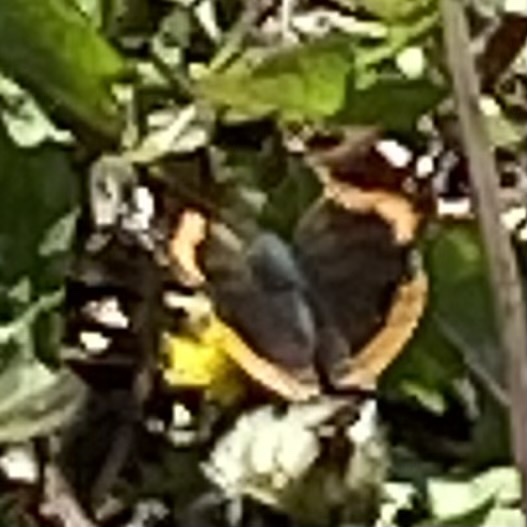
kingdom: Animalia
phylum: Arthropoda
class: Insecta
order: Lepidoptera
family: Nymphalidae
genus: Vanessa
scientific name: Vanessa atalanta
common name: Red admiral
